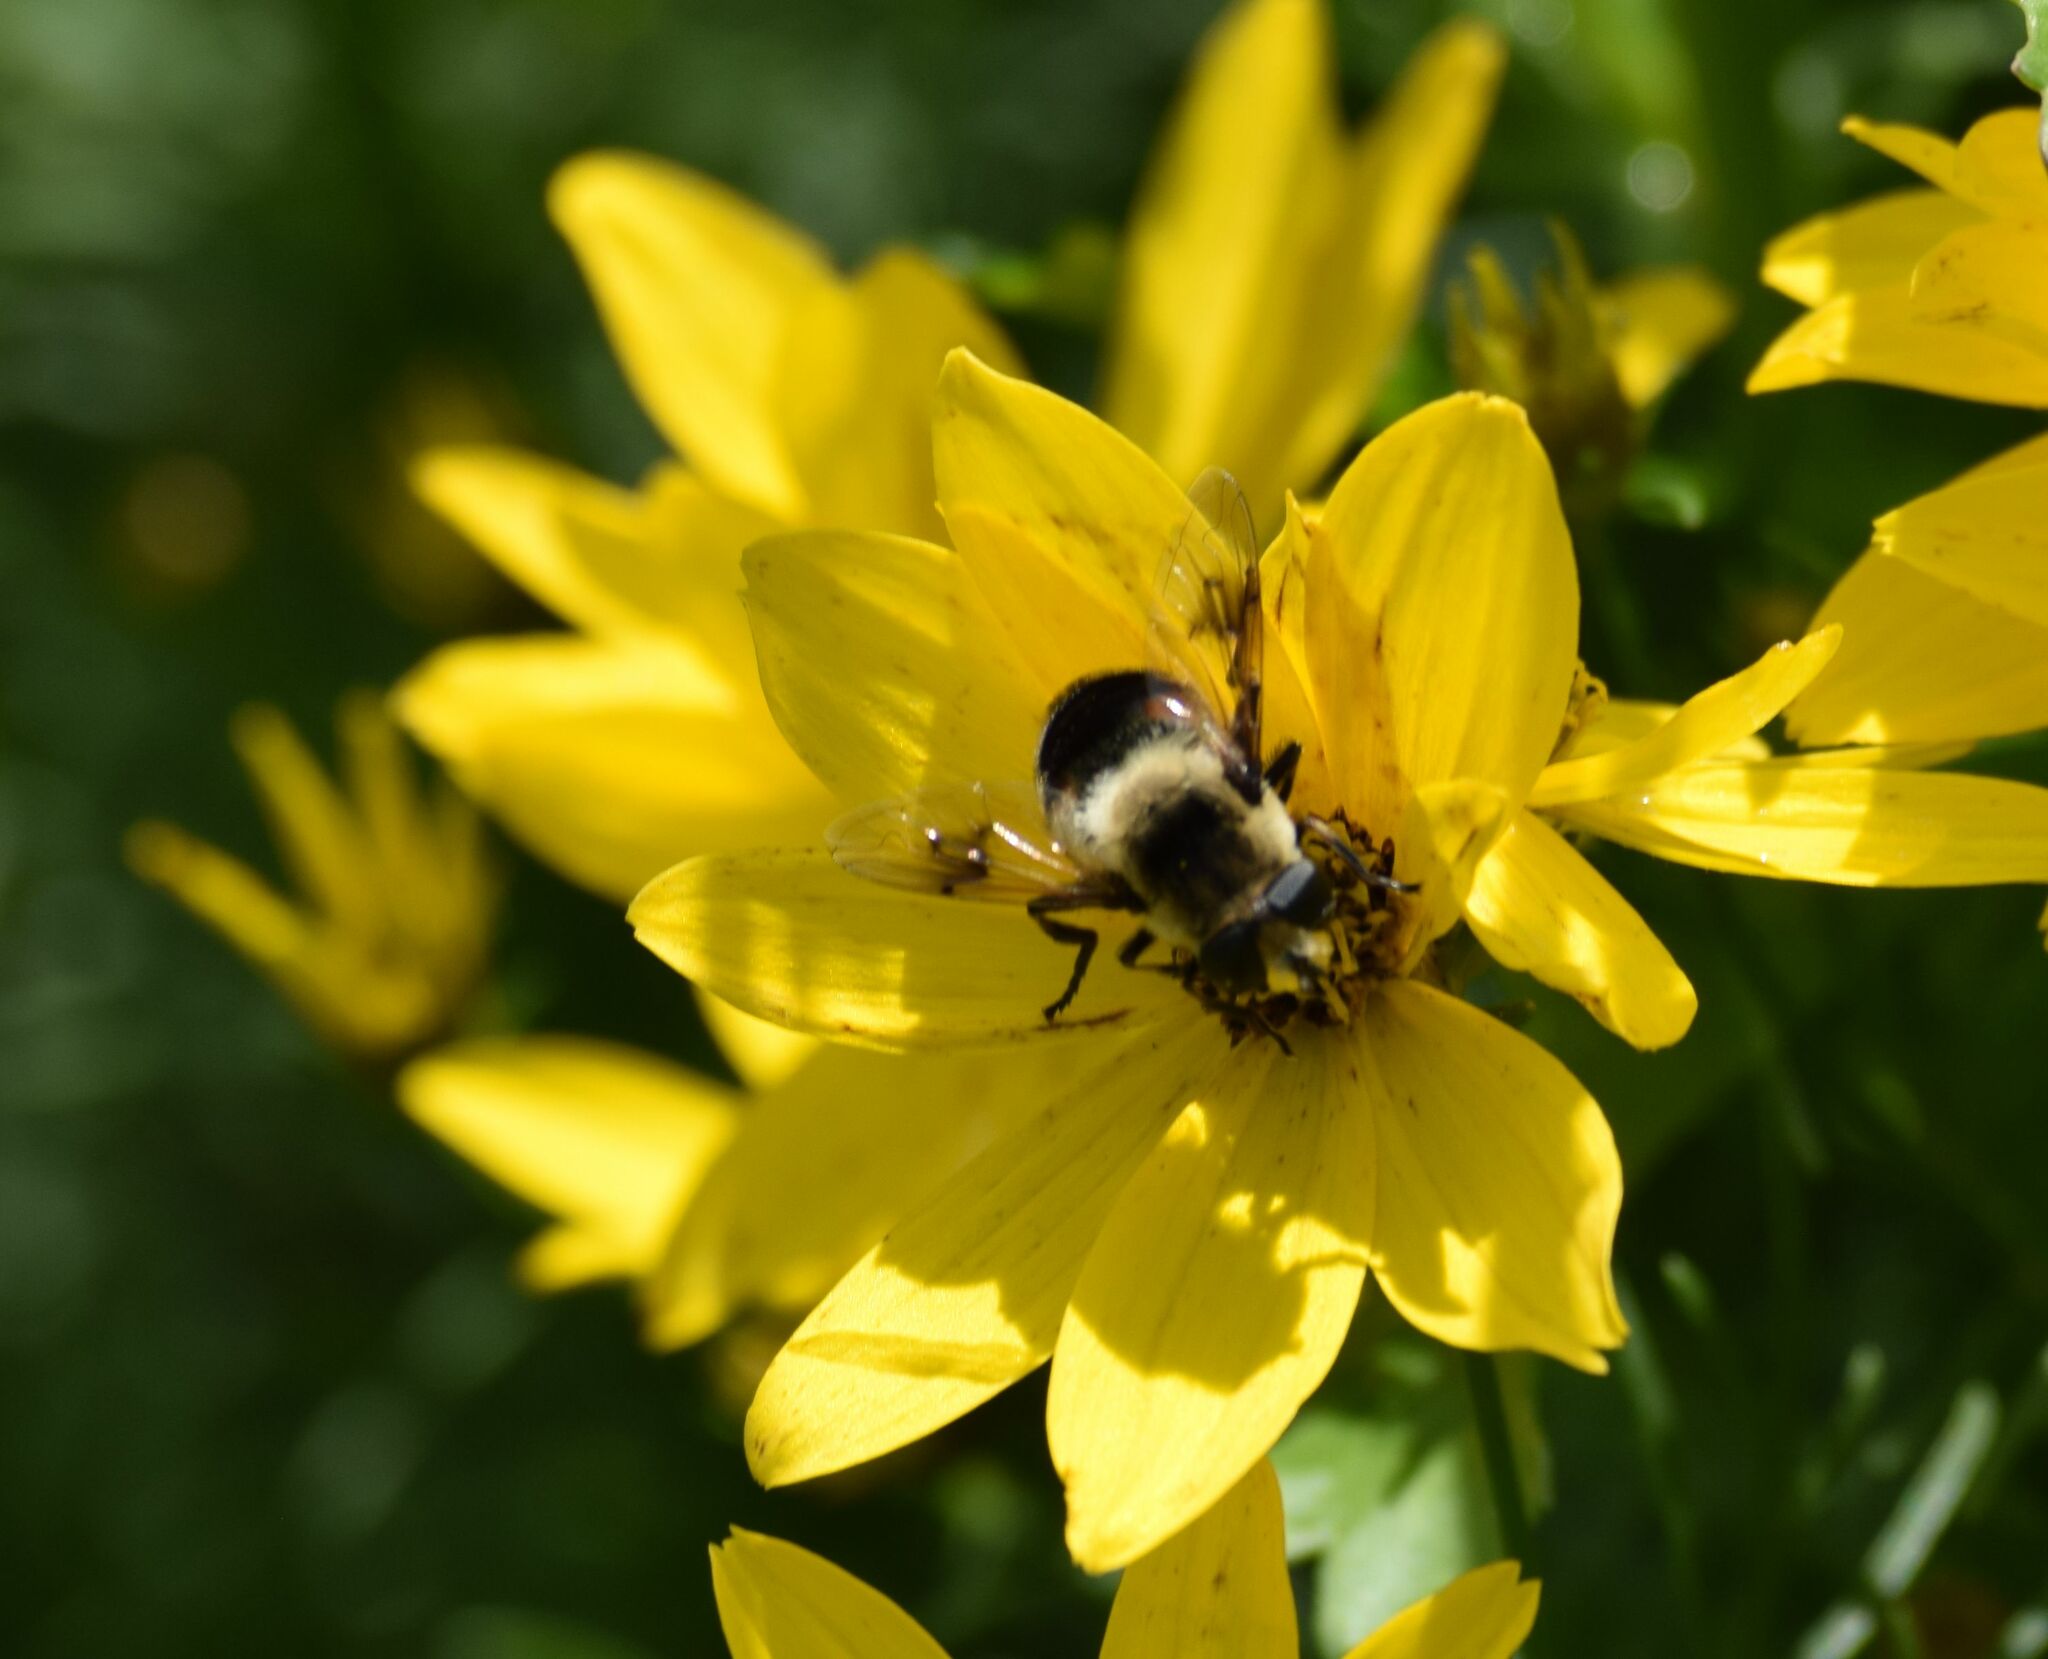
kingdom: Animalia
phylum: Arthropoda
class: Insecta
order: Diptera
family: Syrphidae
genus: Eristalis
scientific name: Eristalis anthophorina
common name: Orange-spotted drone fly
